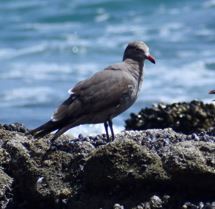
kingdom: Animalia
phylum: Chordata
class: Aves
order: Charadriiformes
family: Laridae
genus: Larus
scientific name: Larus heermanni
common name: Heermann's gull
